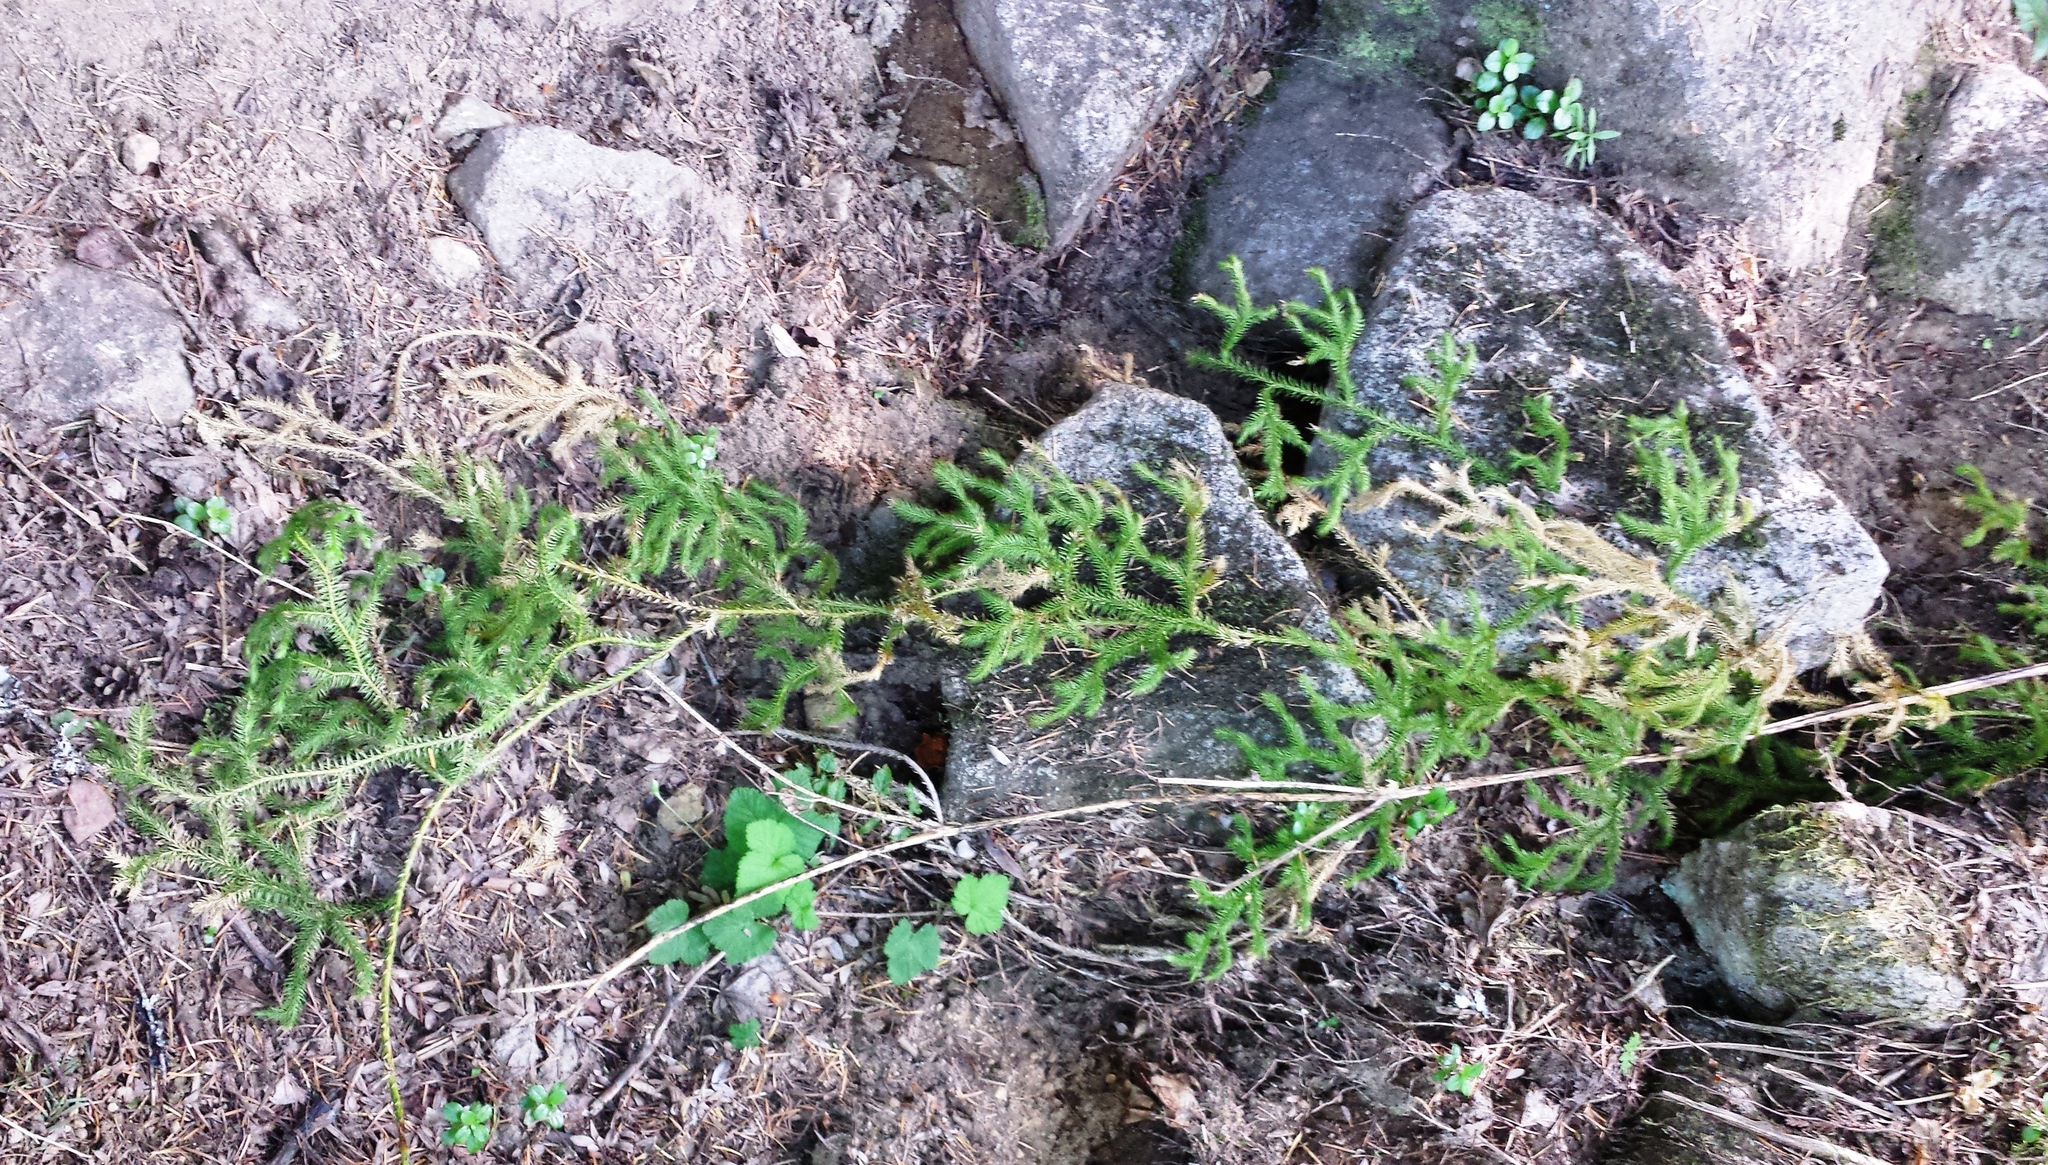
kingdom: Plantae
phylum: Tracheophyta
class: Lycopodiopsida
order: Lycopodiales
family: Lycopodiaceae
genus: Lycopodium
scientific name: Lycopodium clavatum
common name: Stag's-horn clubmoss
